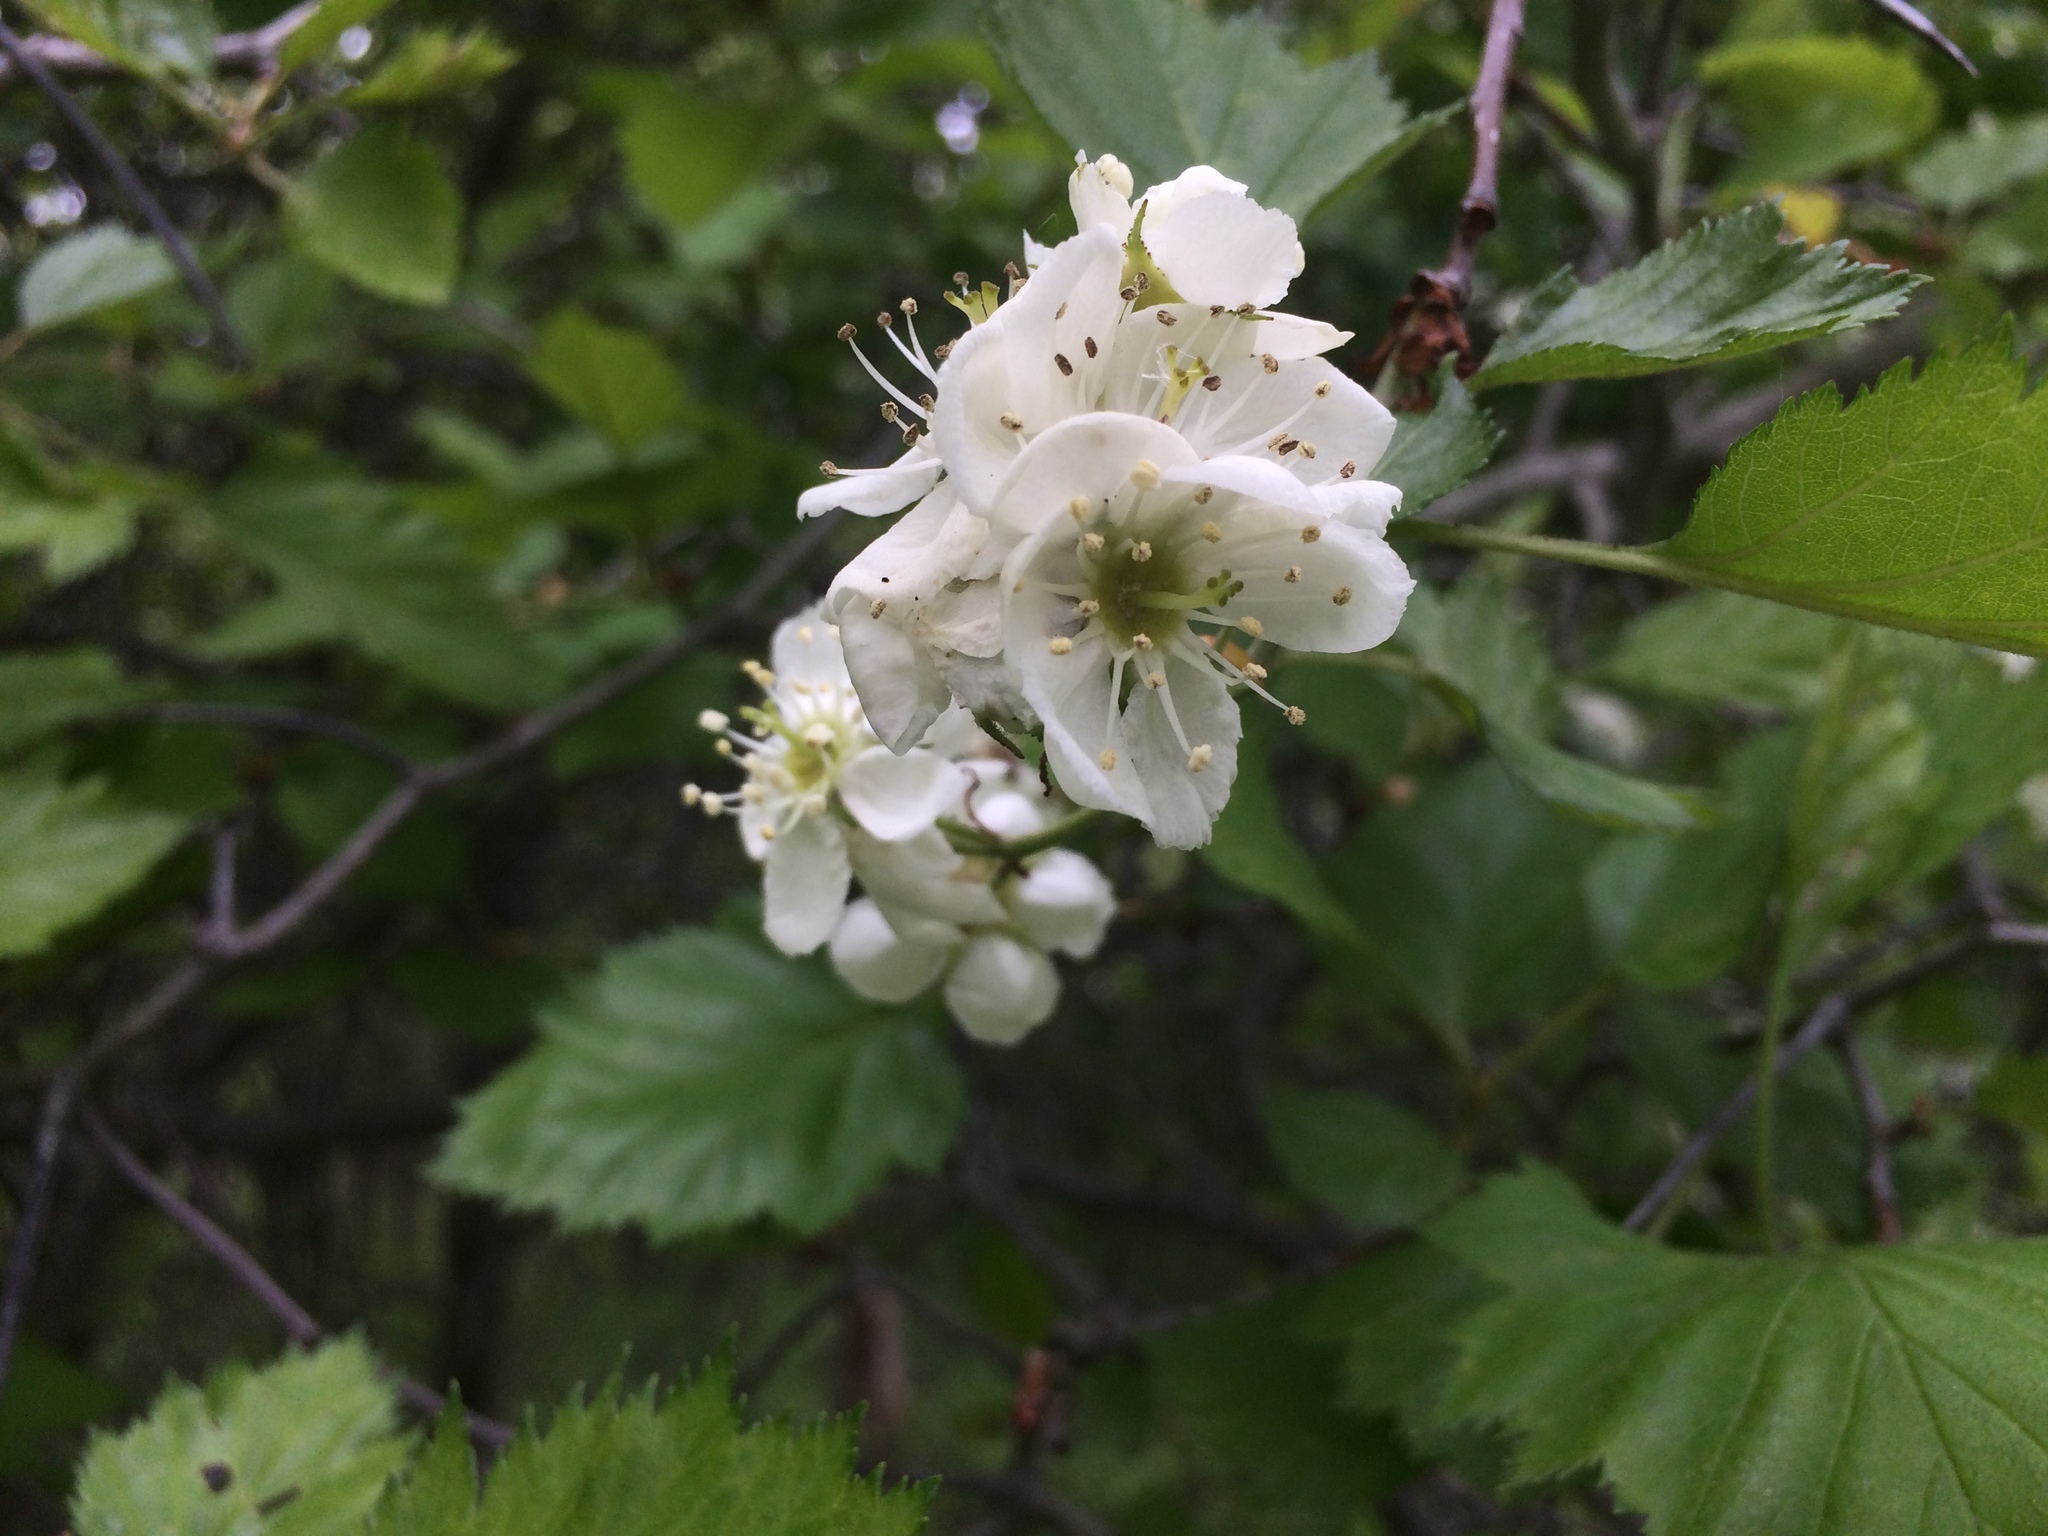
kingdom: Plantae
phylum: Tracheophyta
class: Magnoliopsida
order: Rosales
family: Rosaceae
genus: Crataegus
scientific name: Crataegus submollis
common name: Hairy cockspurthorn
